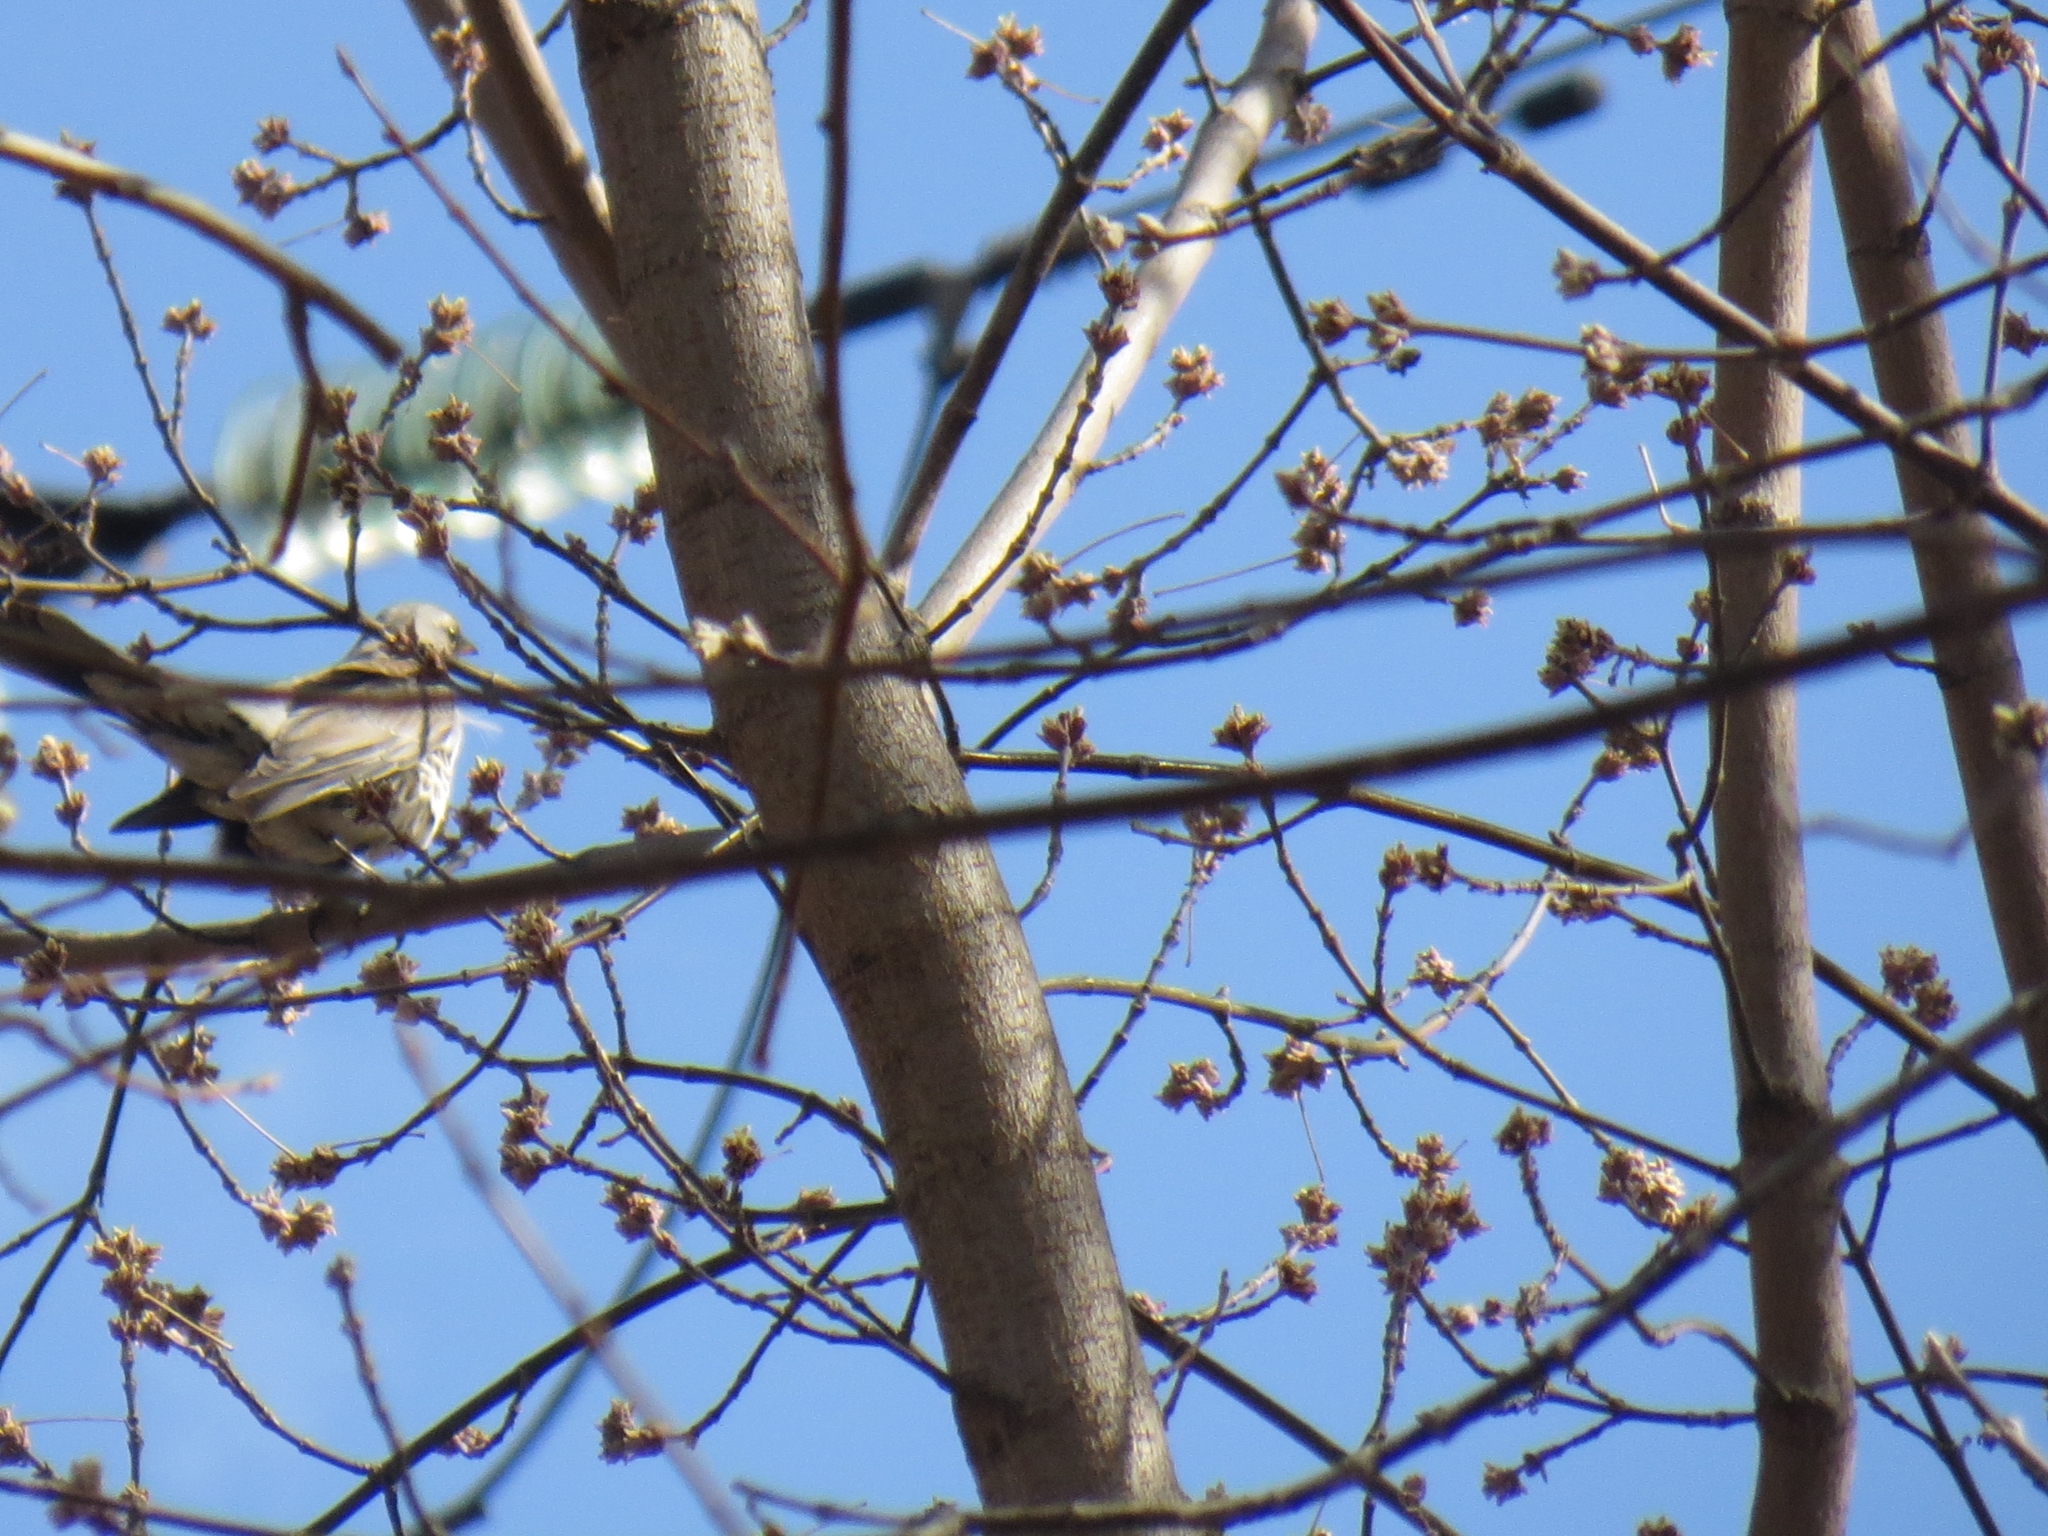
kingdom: Animalia
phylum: Chordata
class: Aves
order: Passeriformes
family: Turdidae
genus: Turdus
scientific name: Turdus pilaris
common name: Fieldfare
